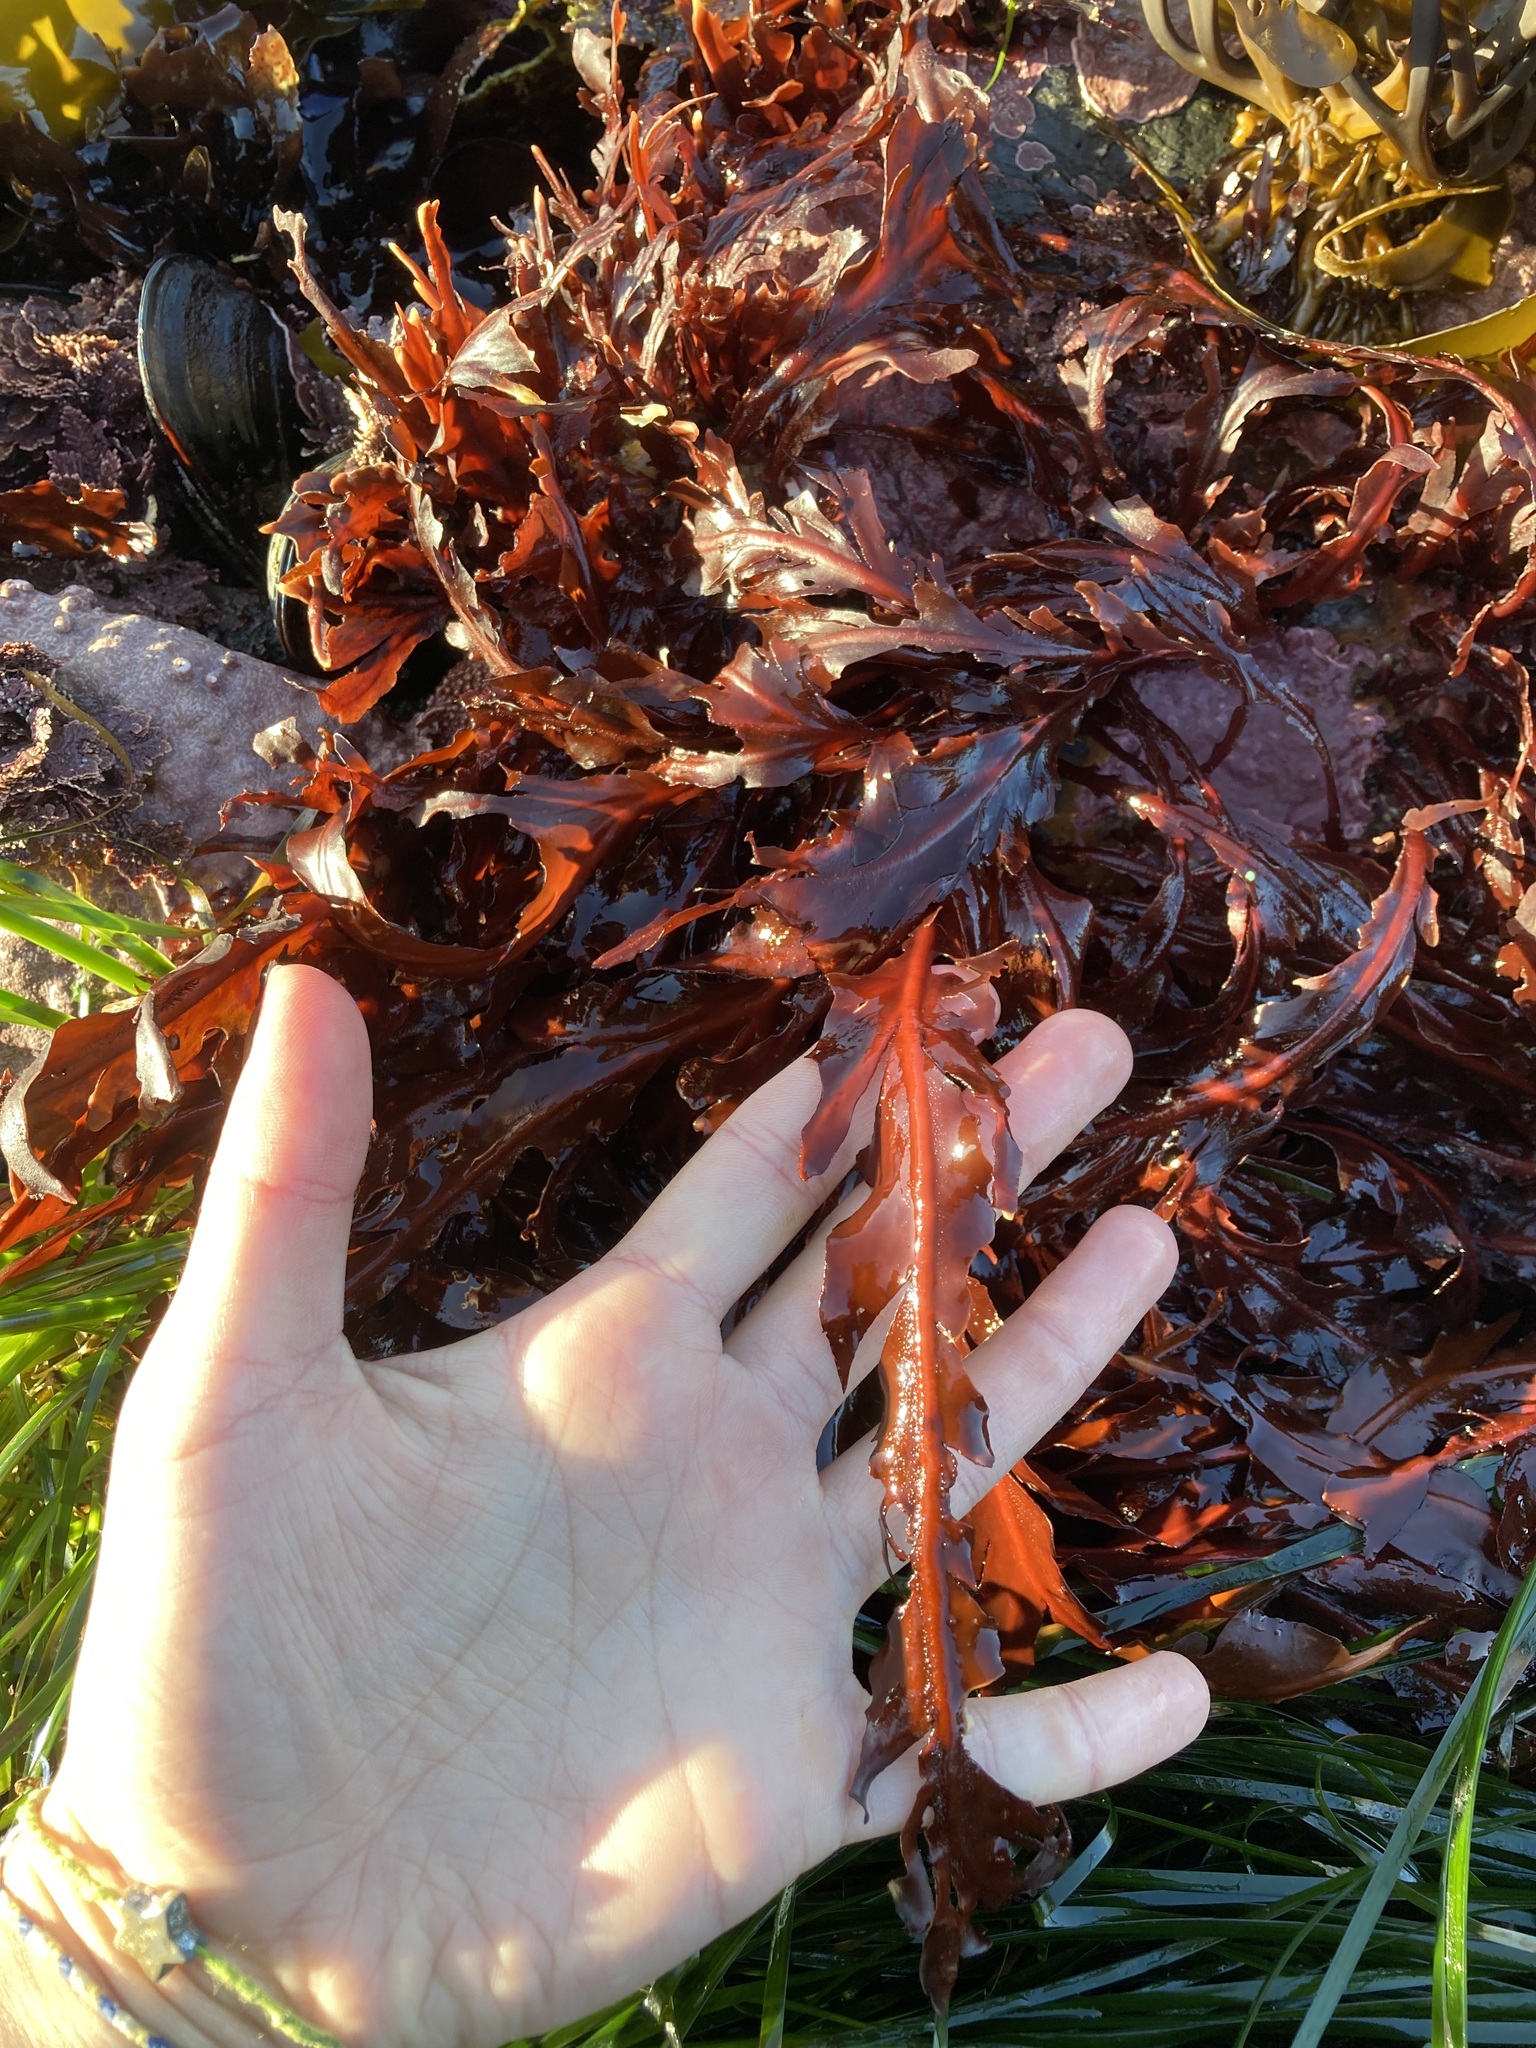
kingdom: Plantae
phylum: Rhodophyta
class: Florideophyceae
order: Gigartinales
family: Kallymeniaceae
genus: Erythrophyllum
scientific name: Erythrophyllum delesserioides
